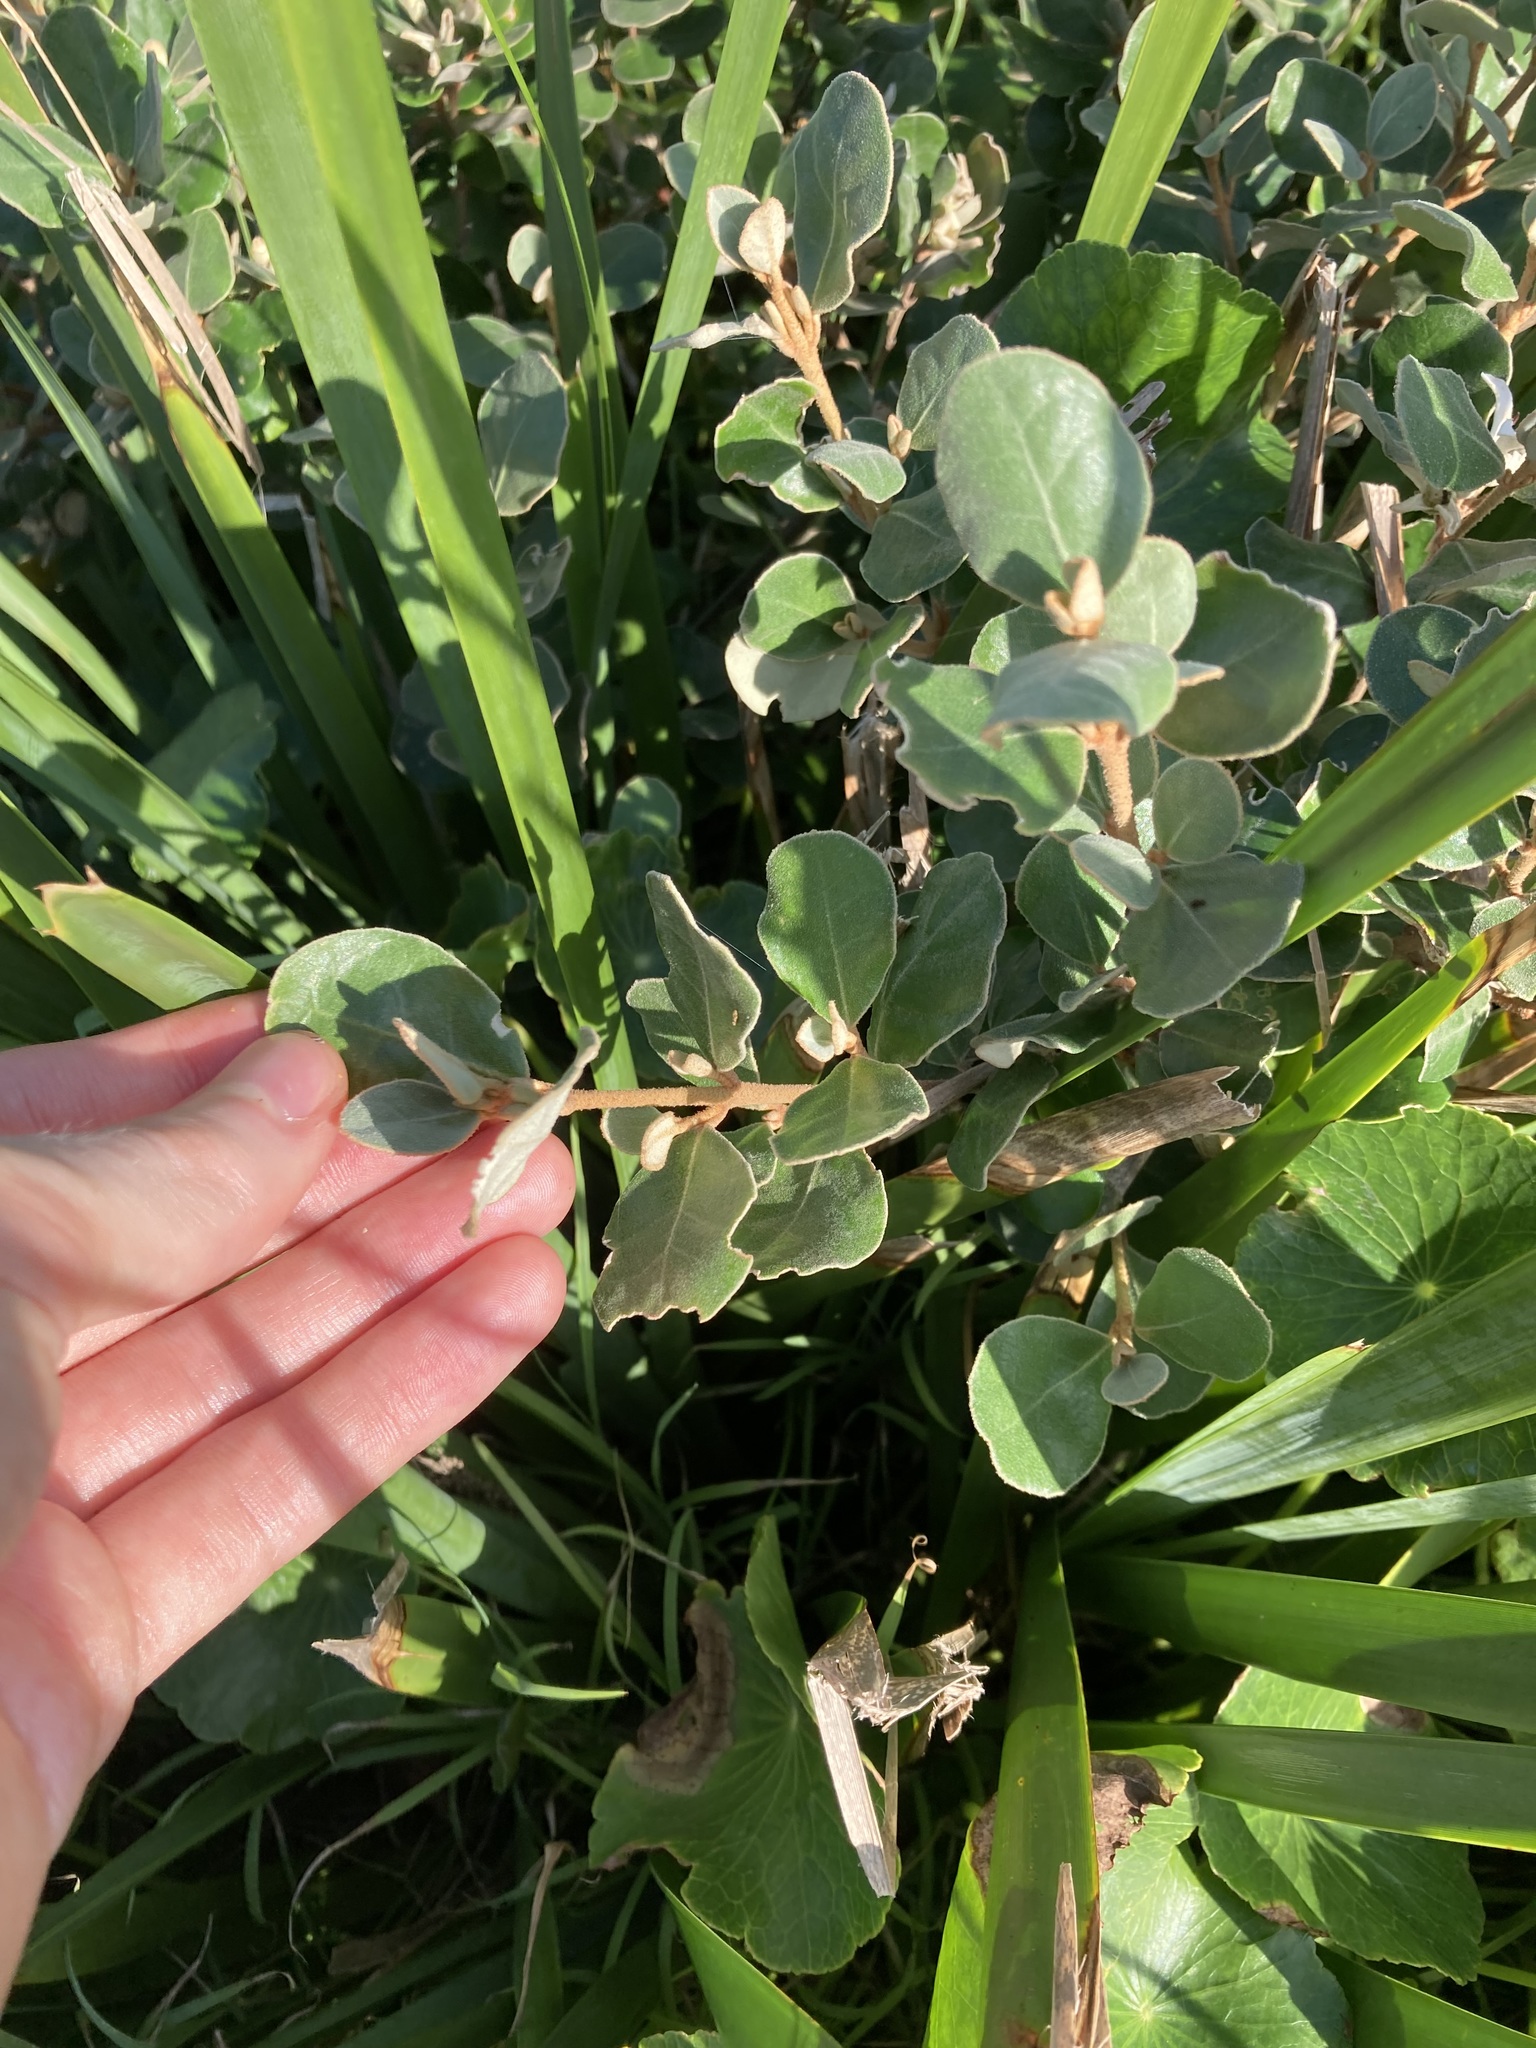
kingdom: Plantae
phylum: Tracheophyta
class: Magnoliopsida
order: Sapindales
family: Rutaceae
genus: Correa
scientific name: Correa alba
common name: White correa
